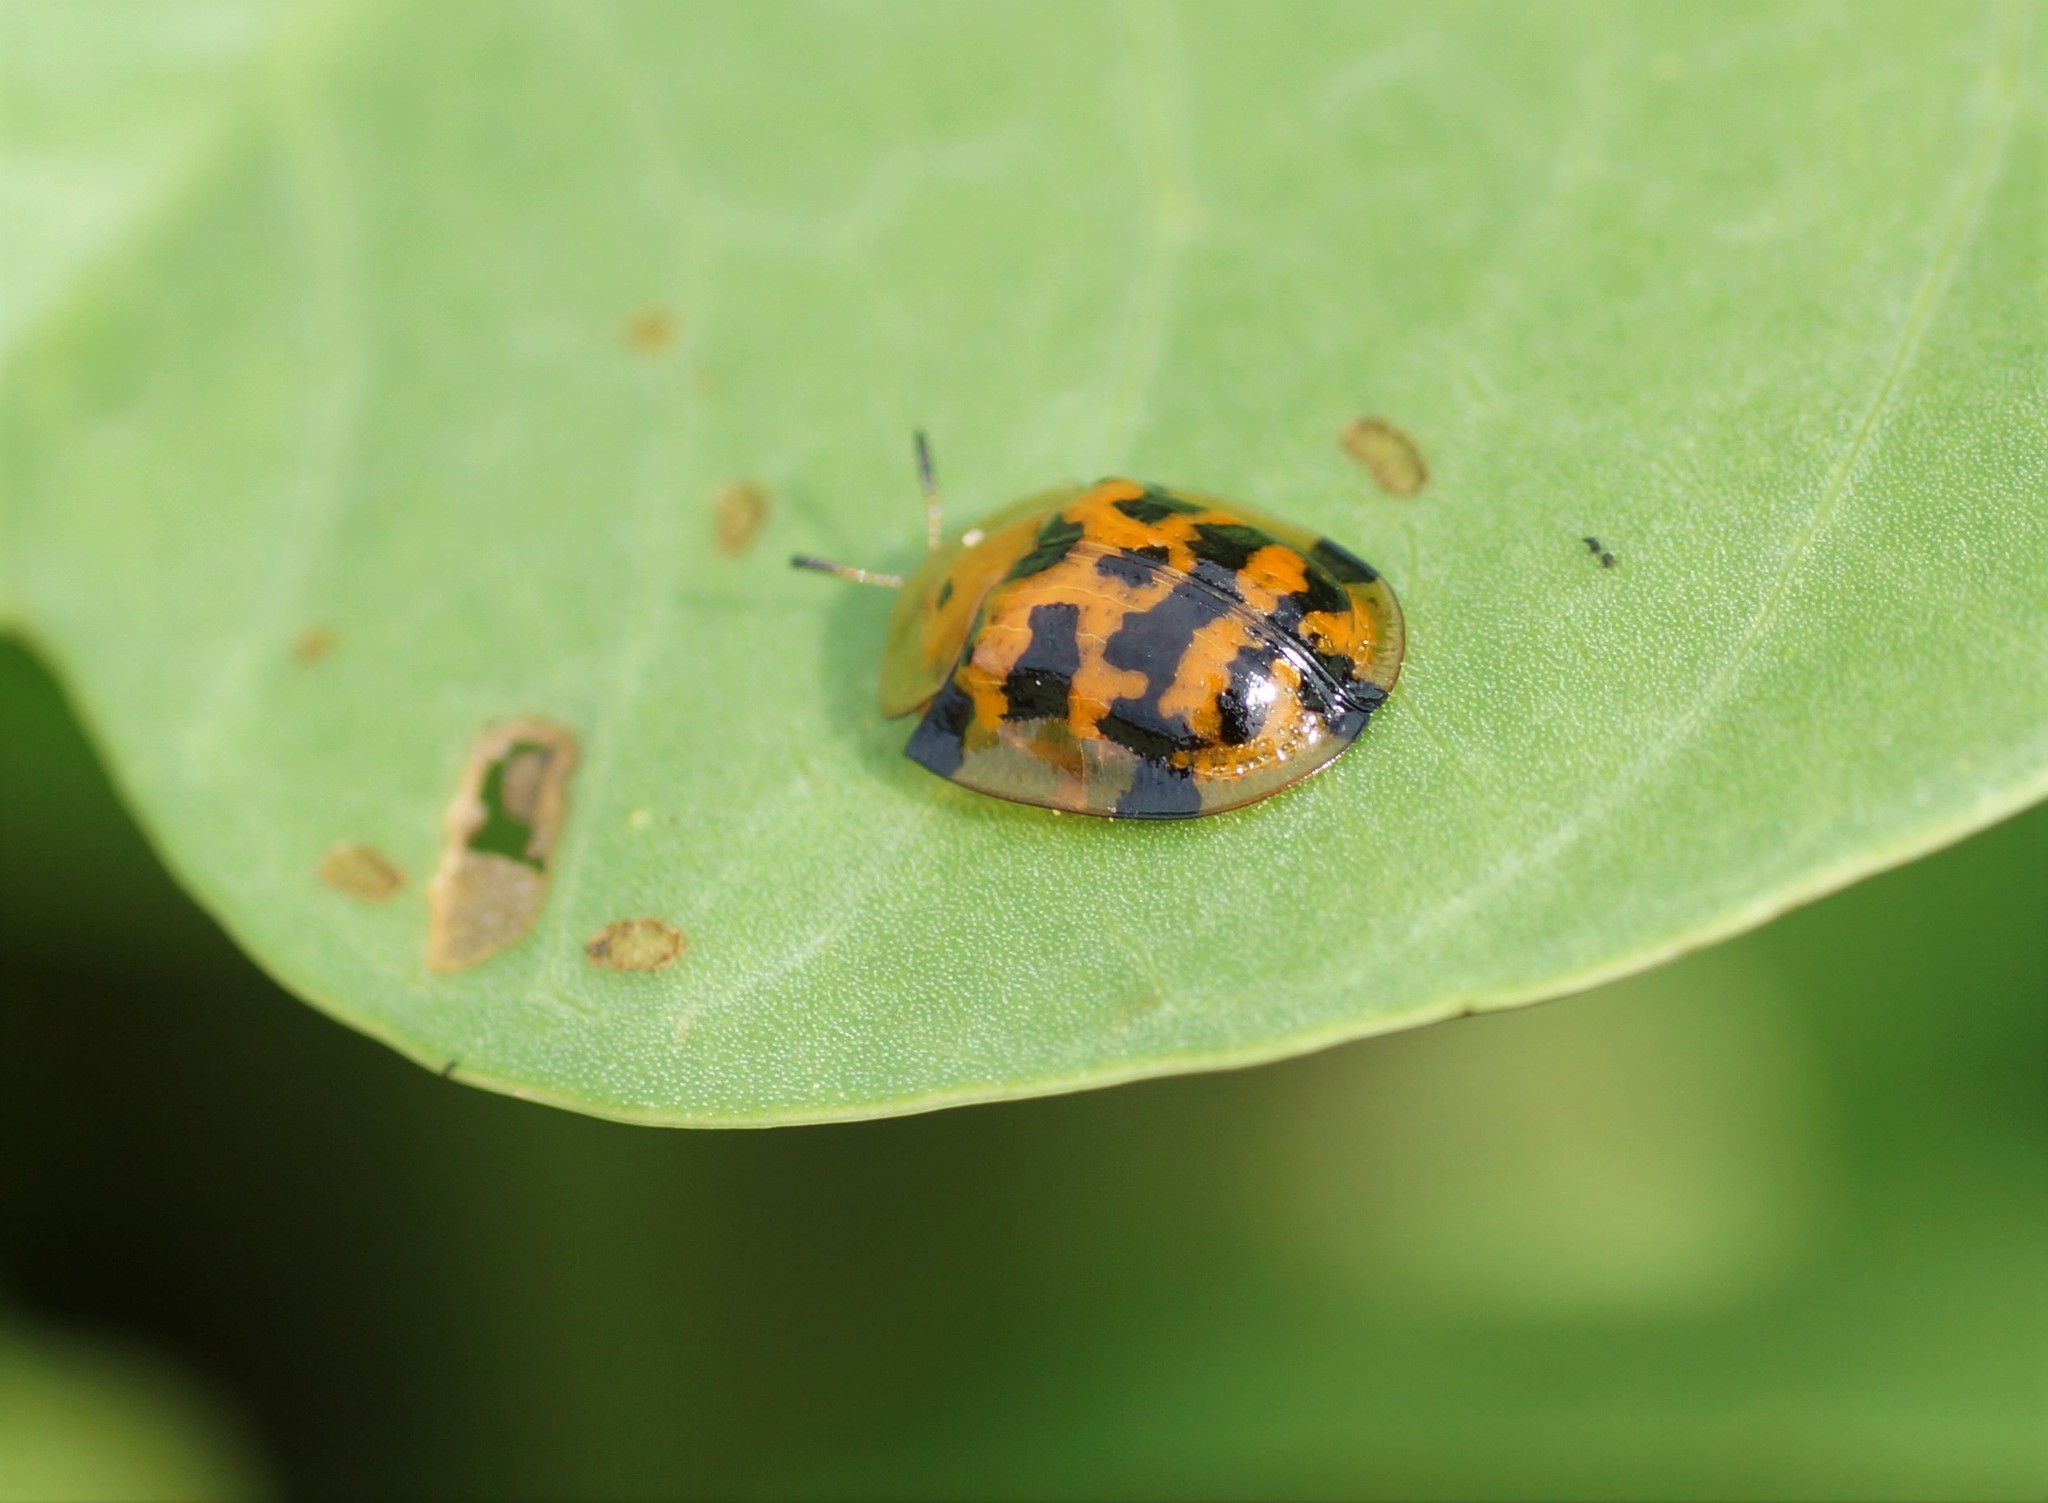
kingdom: Animalia
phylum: Arthropoda
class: Insecta
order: Coleoptera
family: Chrysomelidae
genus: Aspidimorpha
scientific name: Aspidimorpha deusta
